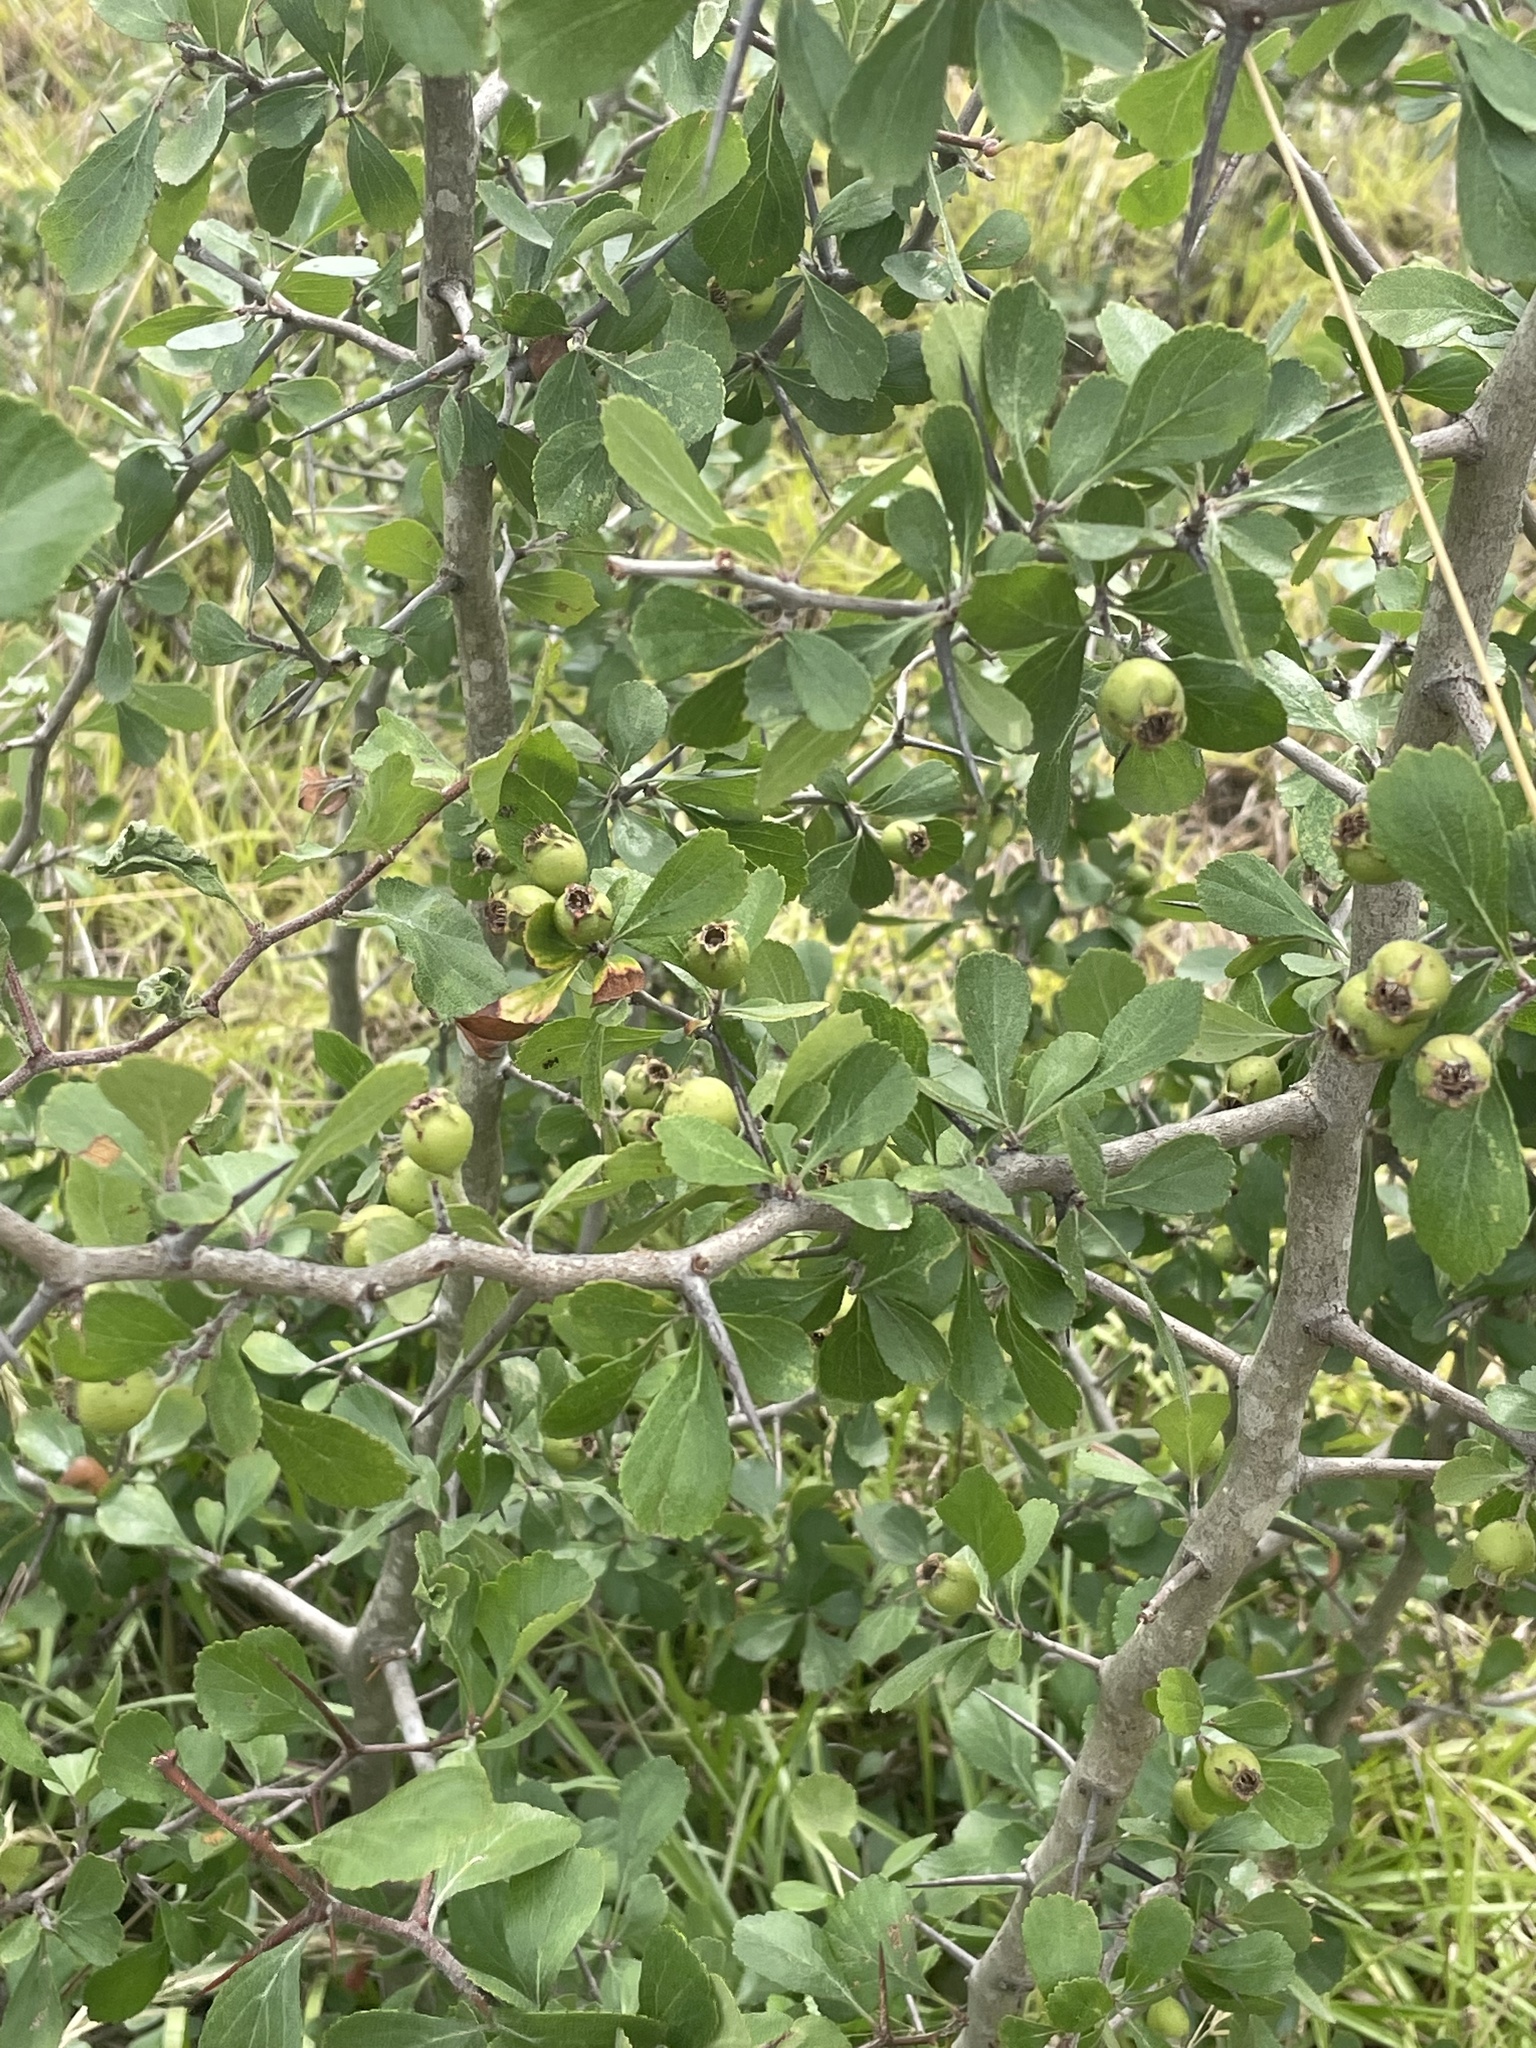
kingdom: Plantae
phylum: Tracheophyta
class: Magnoliopsida
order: Rosales
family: Rosaceae
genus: Crataegus
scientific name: Crataegus uniflora
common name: One-flower hawthorn
